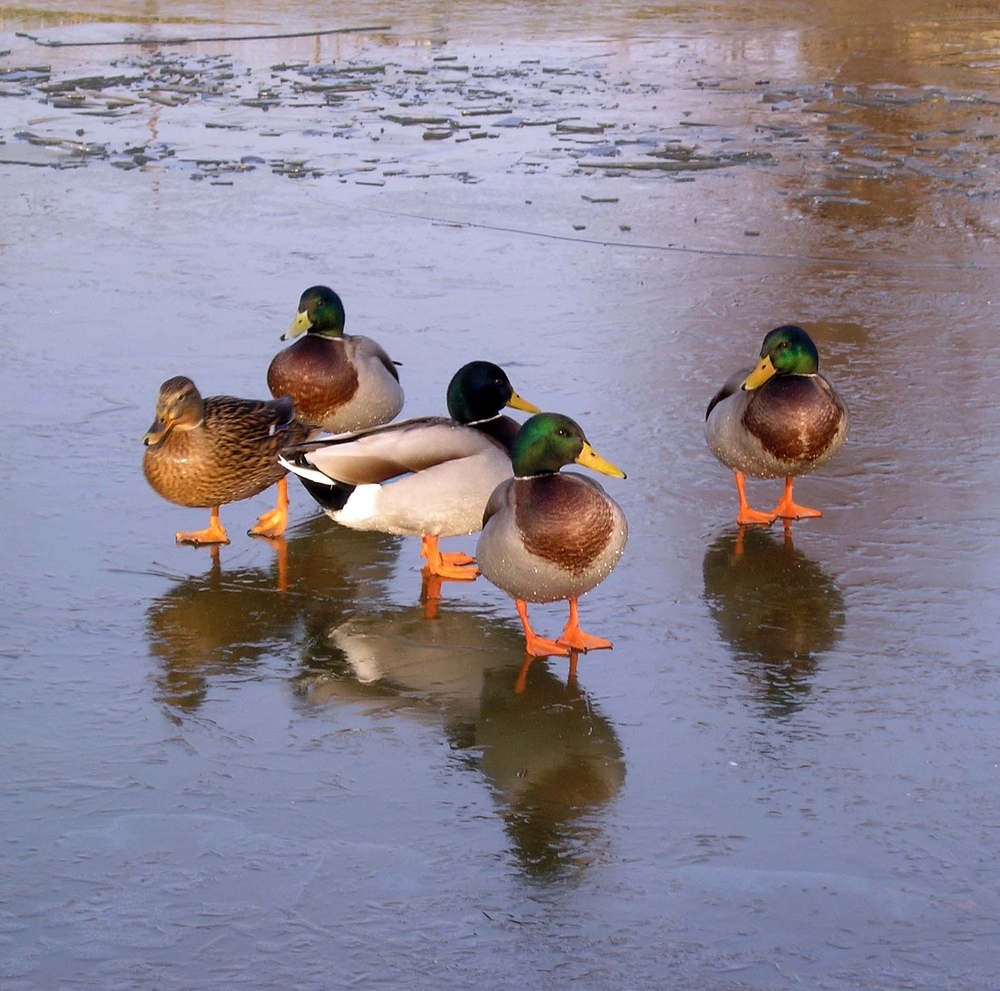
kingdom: Animalia
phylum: Chordata
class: Aves
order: Anseriformes
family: Anatidae
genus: Anas
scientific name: Anas platyrhynchos
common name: Mallard
